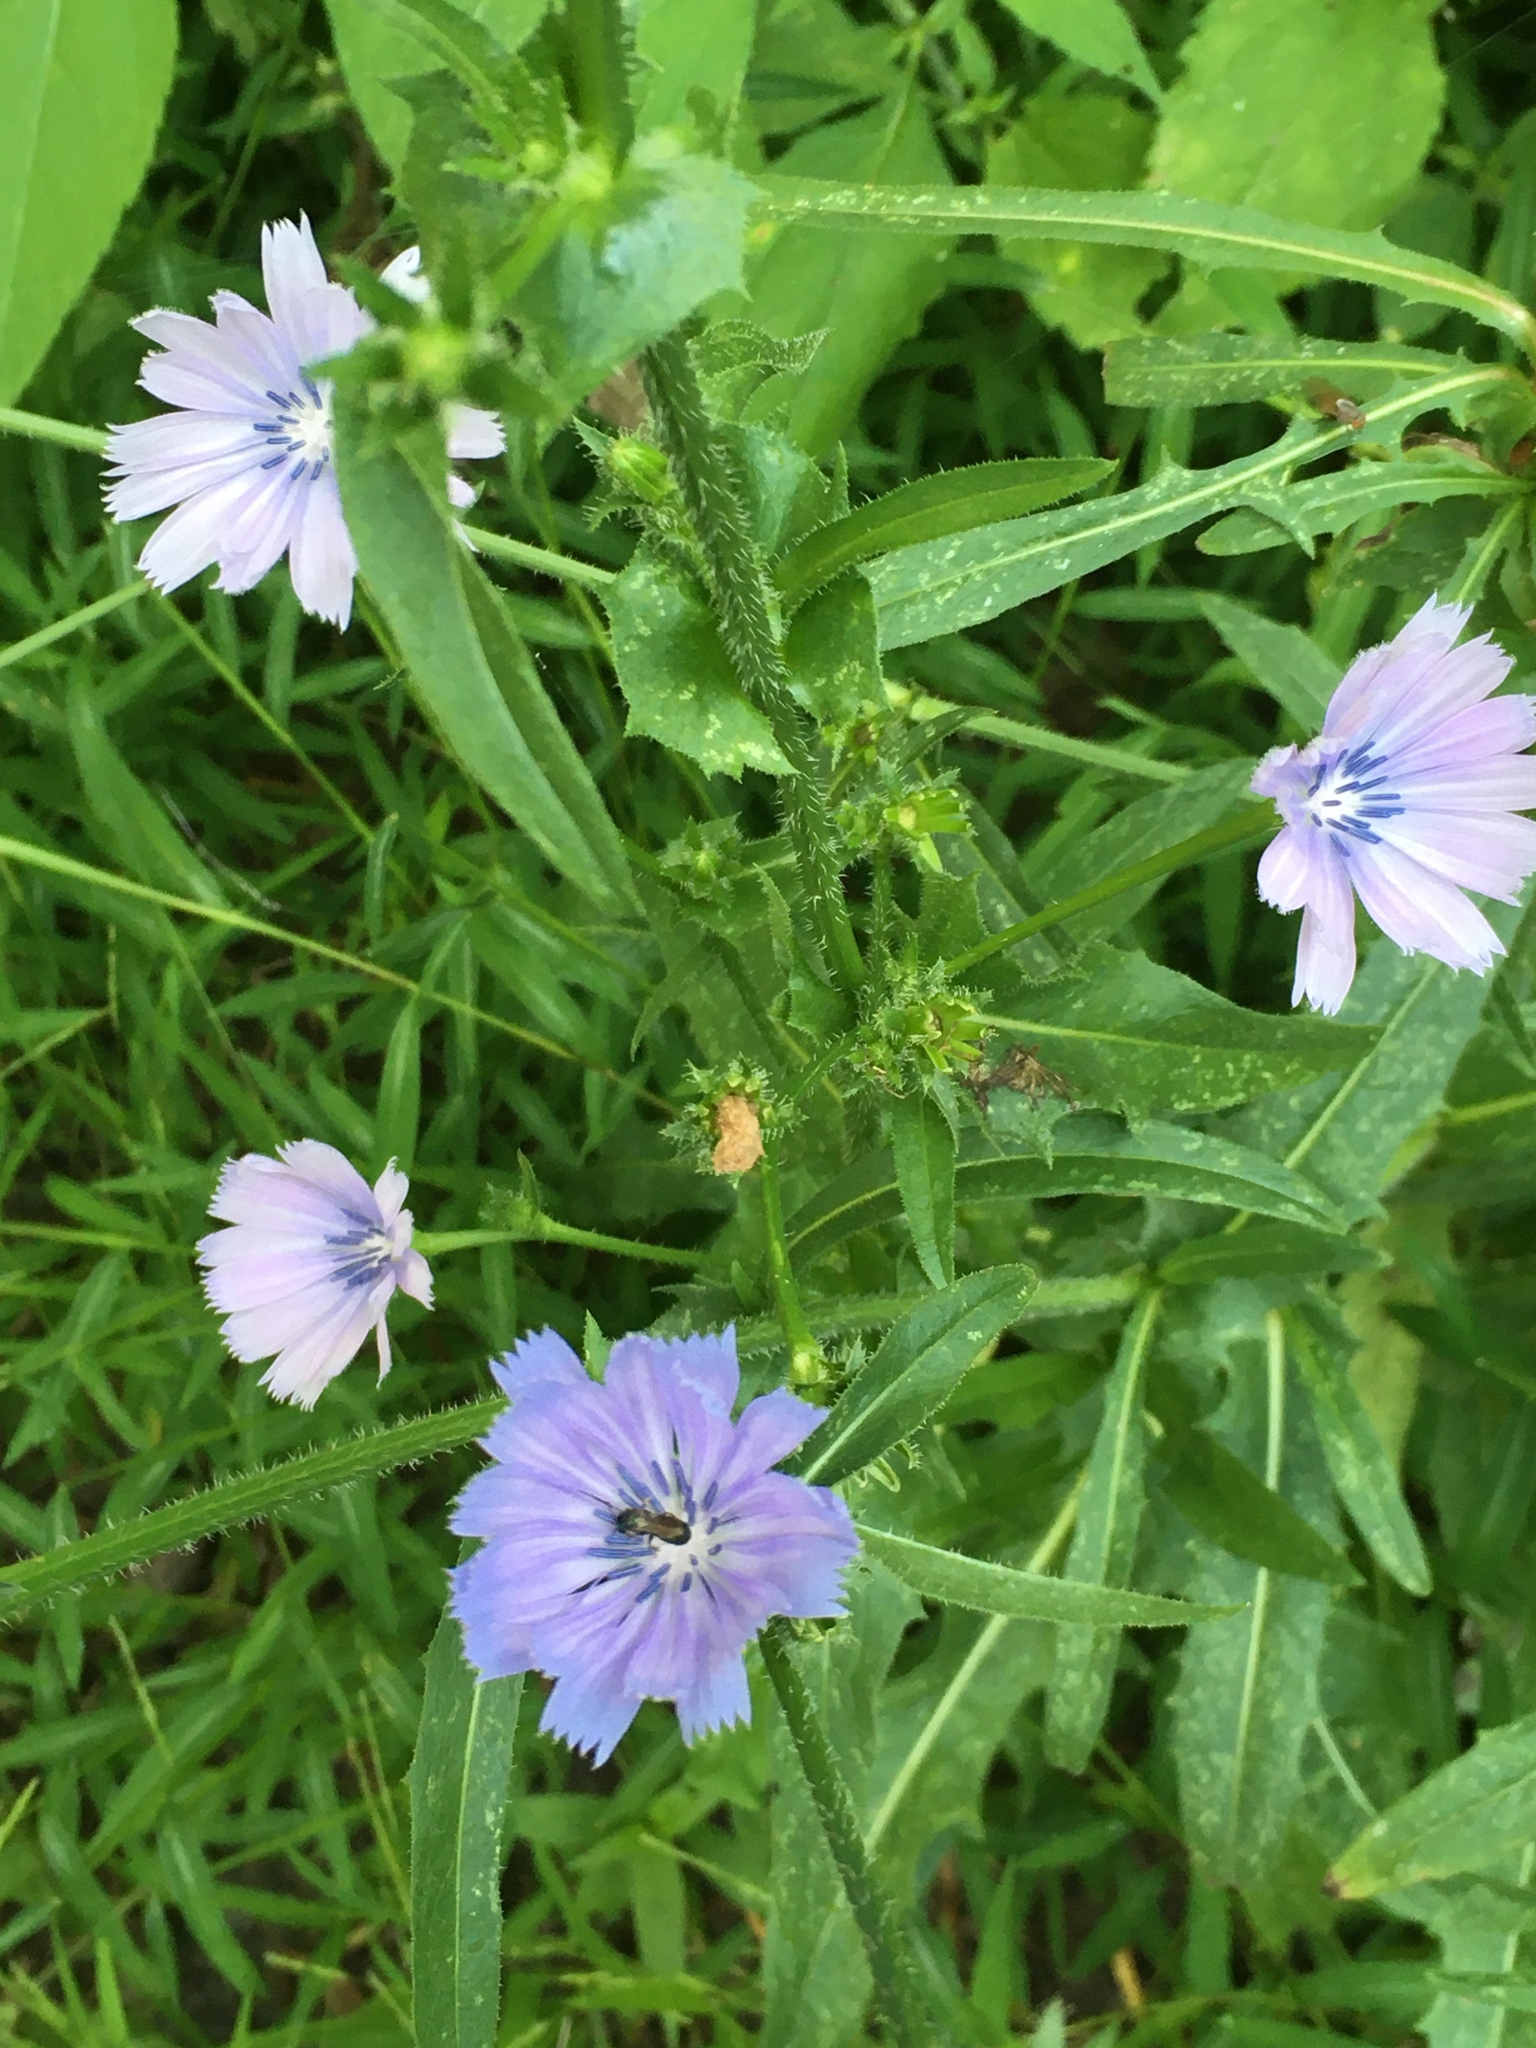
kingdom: Plantae
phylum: Tracheophyta
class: Magnoliopsida
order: Asterales
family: Asteraceae
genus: Cichorium
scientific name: Cichorium intybus
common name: Chicory
